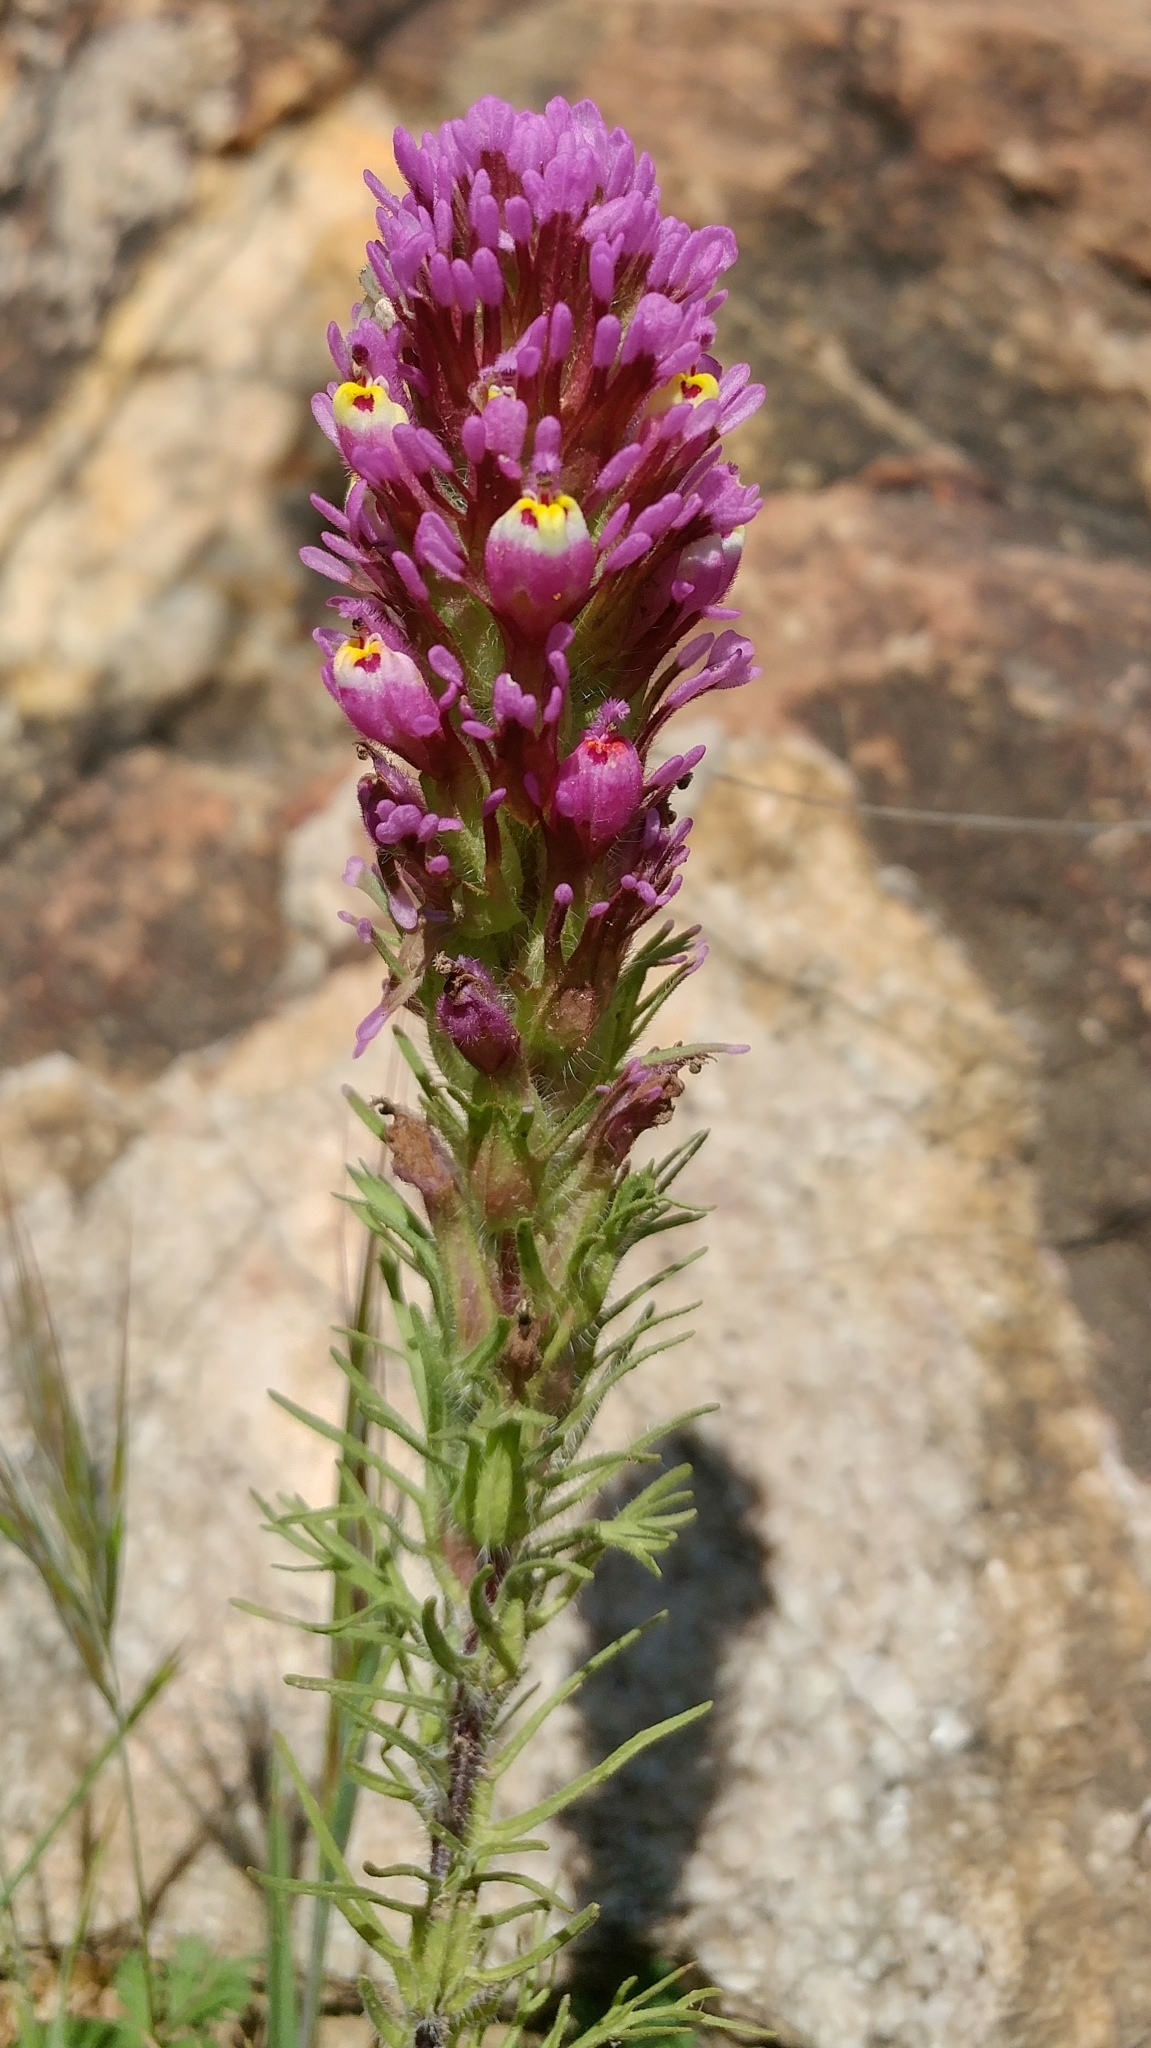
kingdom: Plantae
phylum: Tracheophyta
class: Magnoliopsida
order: Lamiales
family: Orobanchaceae
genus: Castilleja
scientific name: Castilleja exserta
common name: Purple owl-clover
